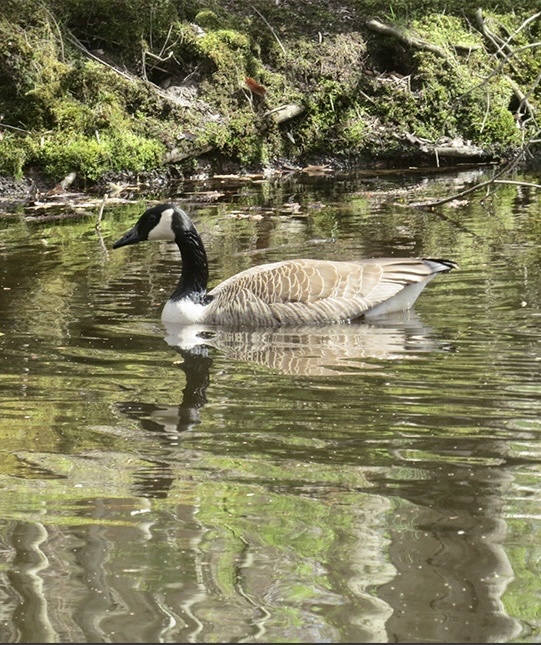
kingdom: Animalia
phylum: Chordata
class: Aves
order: Anseriformes
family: Anatidae
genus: Branta
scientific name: Branta canadensis
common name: Canada goose
